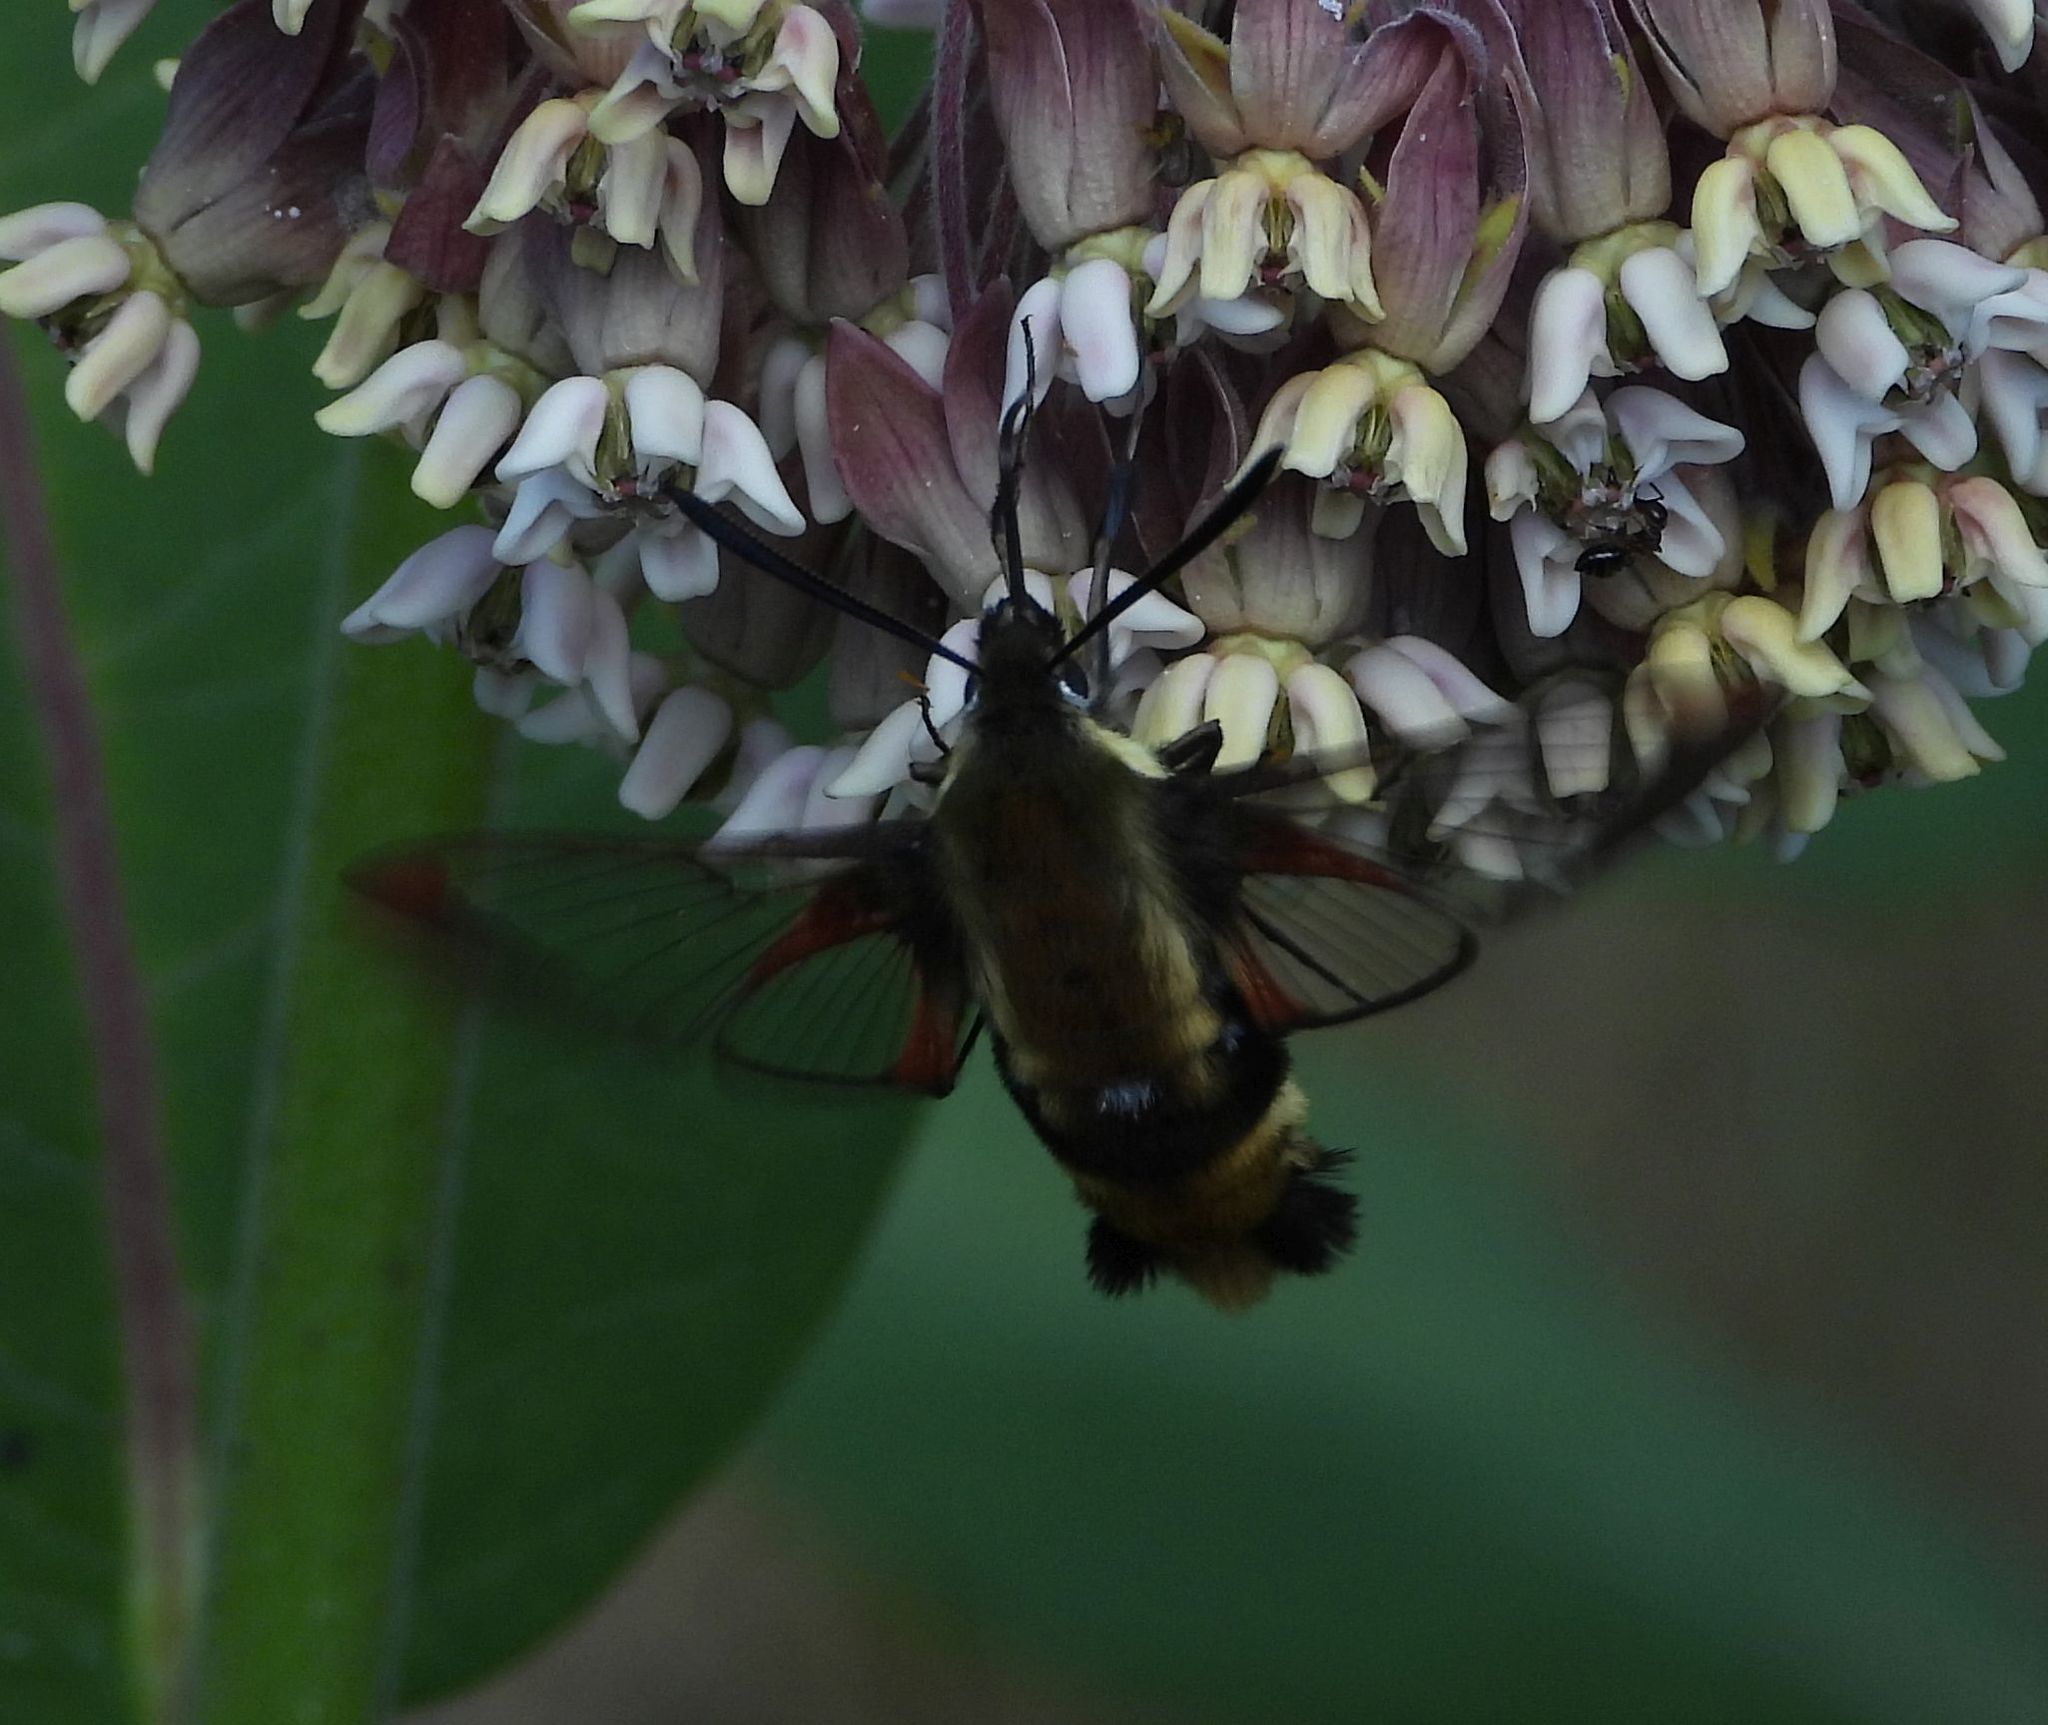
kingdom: Animalia
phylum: Arthropoda
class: Insecta
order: Lepidoptera
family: Sphingidae
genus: Hemaris
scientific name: Hemaris diffinis
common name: Bumblebee moth
